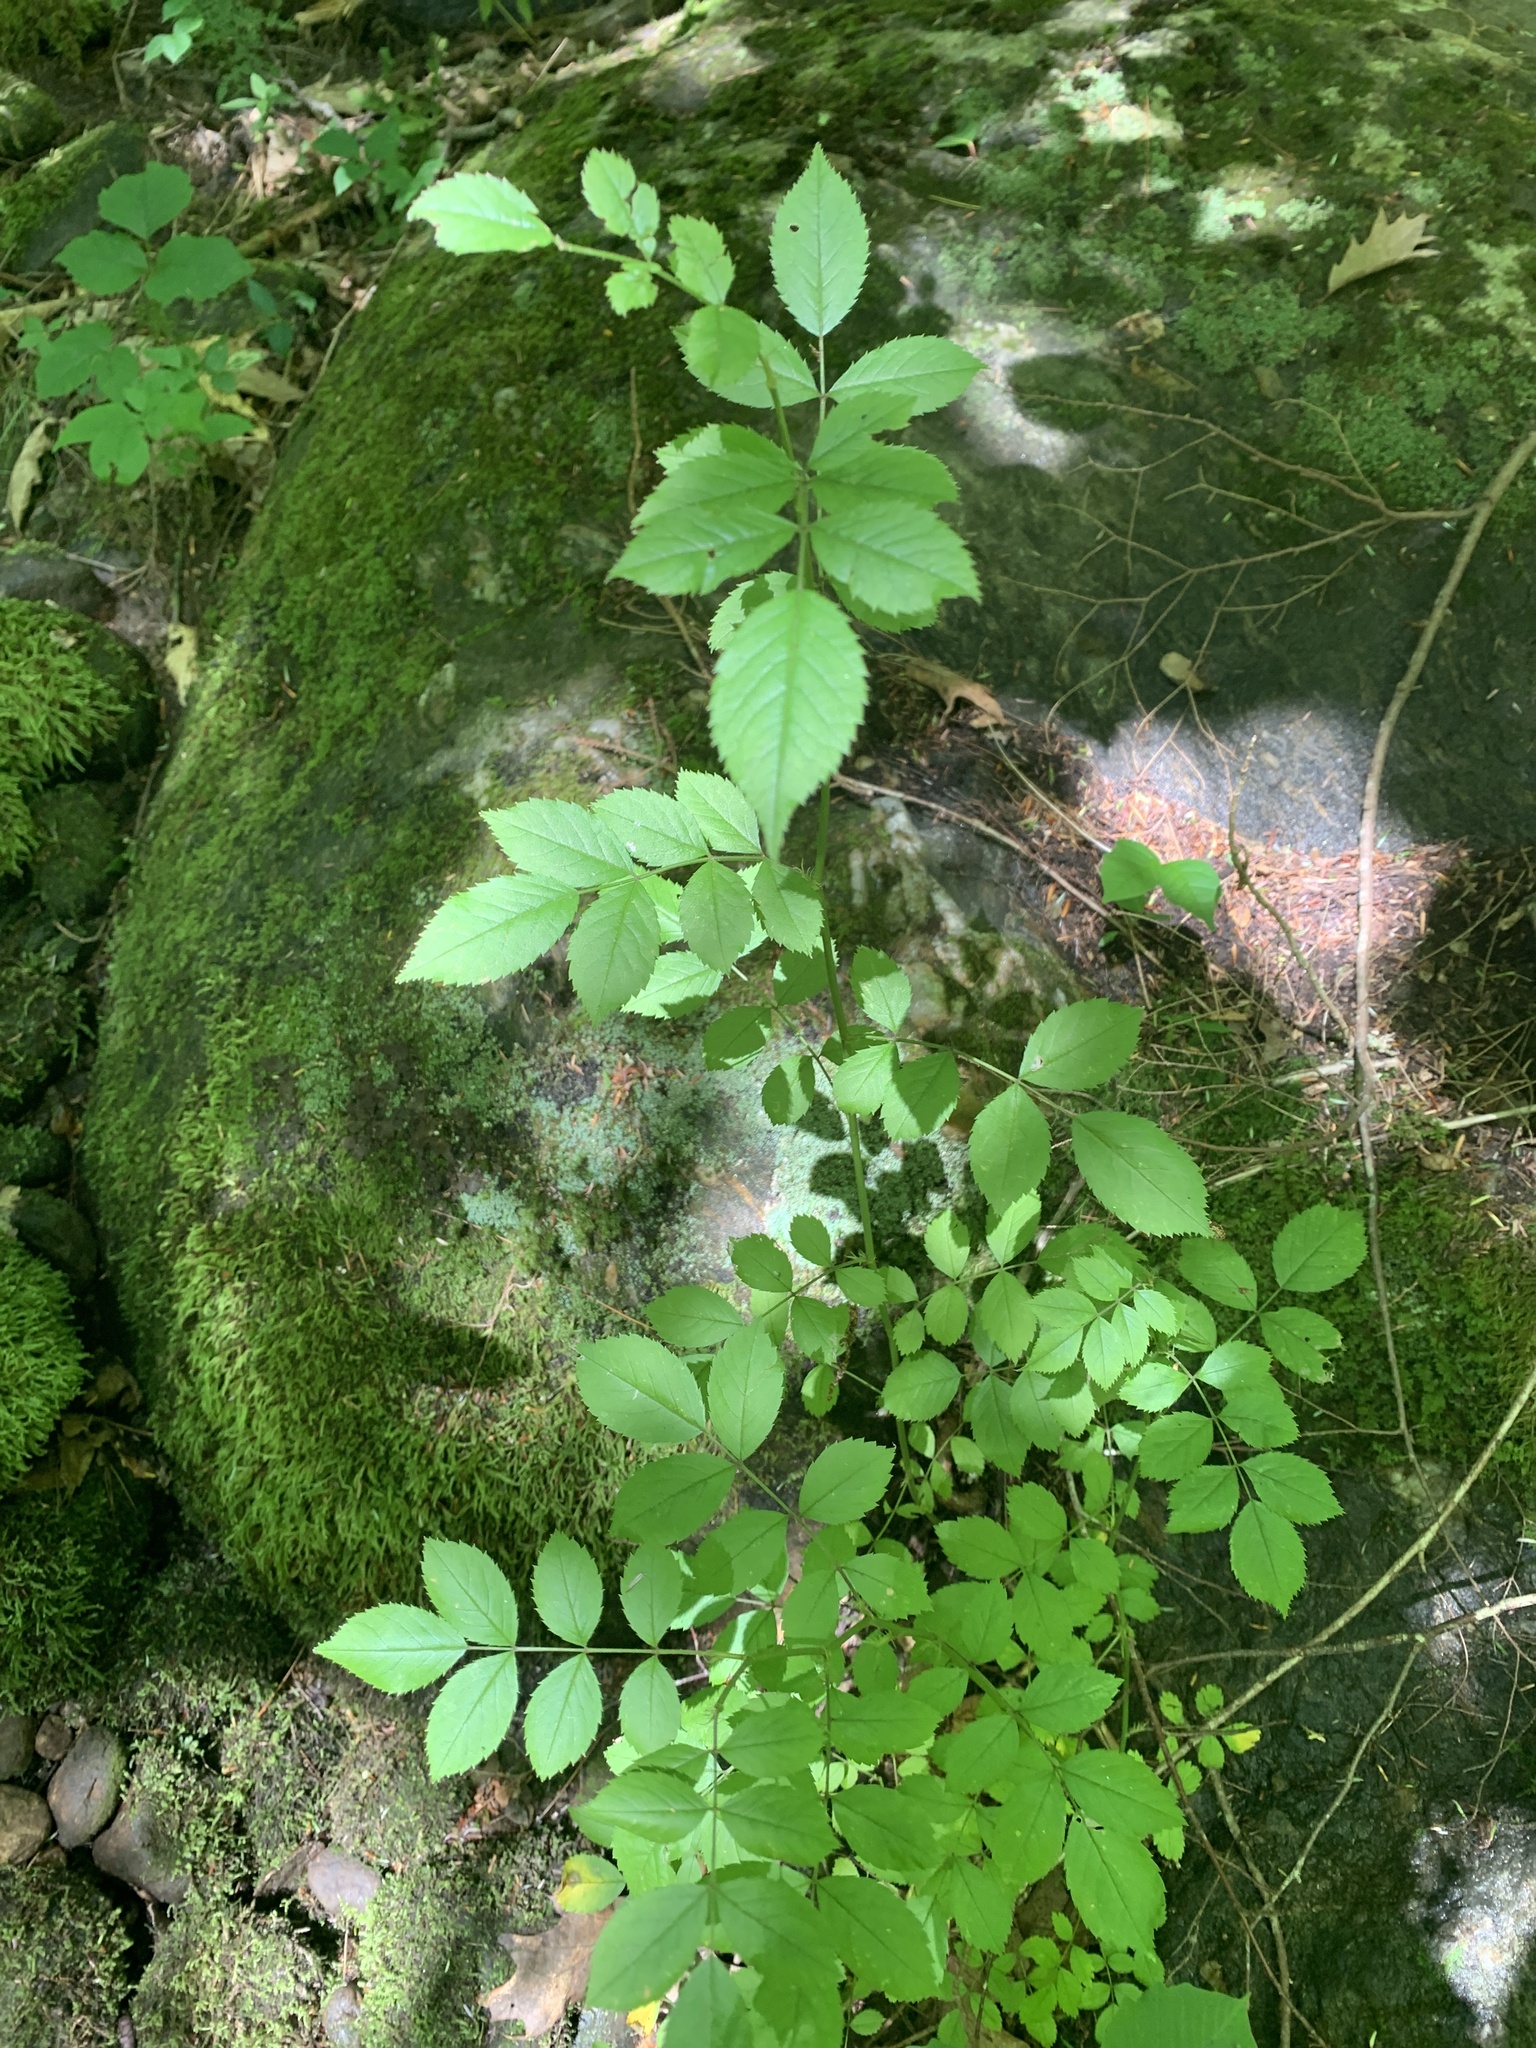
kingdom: Plantae
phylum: Tracheophyta
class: Magnoliopsida
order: Rosales
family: Rosaceae
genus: Rosa
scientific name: Rosa multiflora
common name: Multiflora rose
